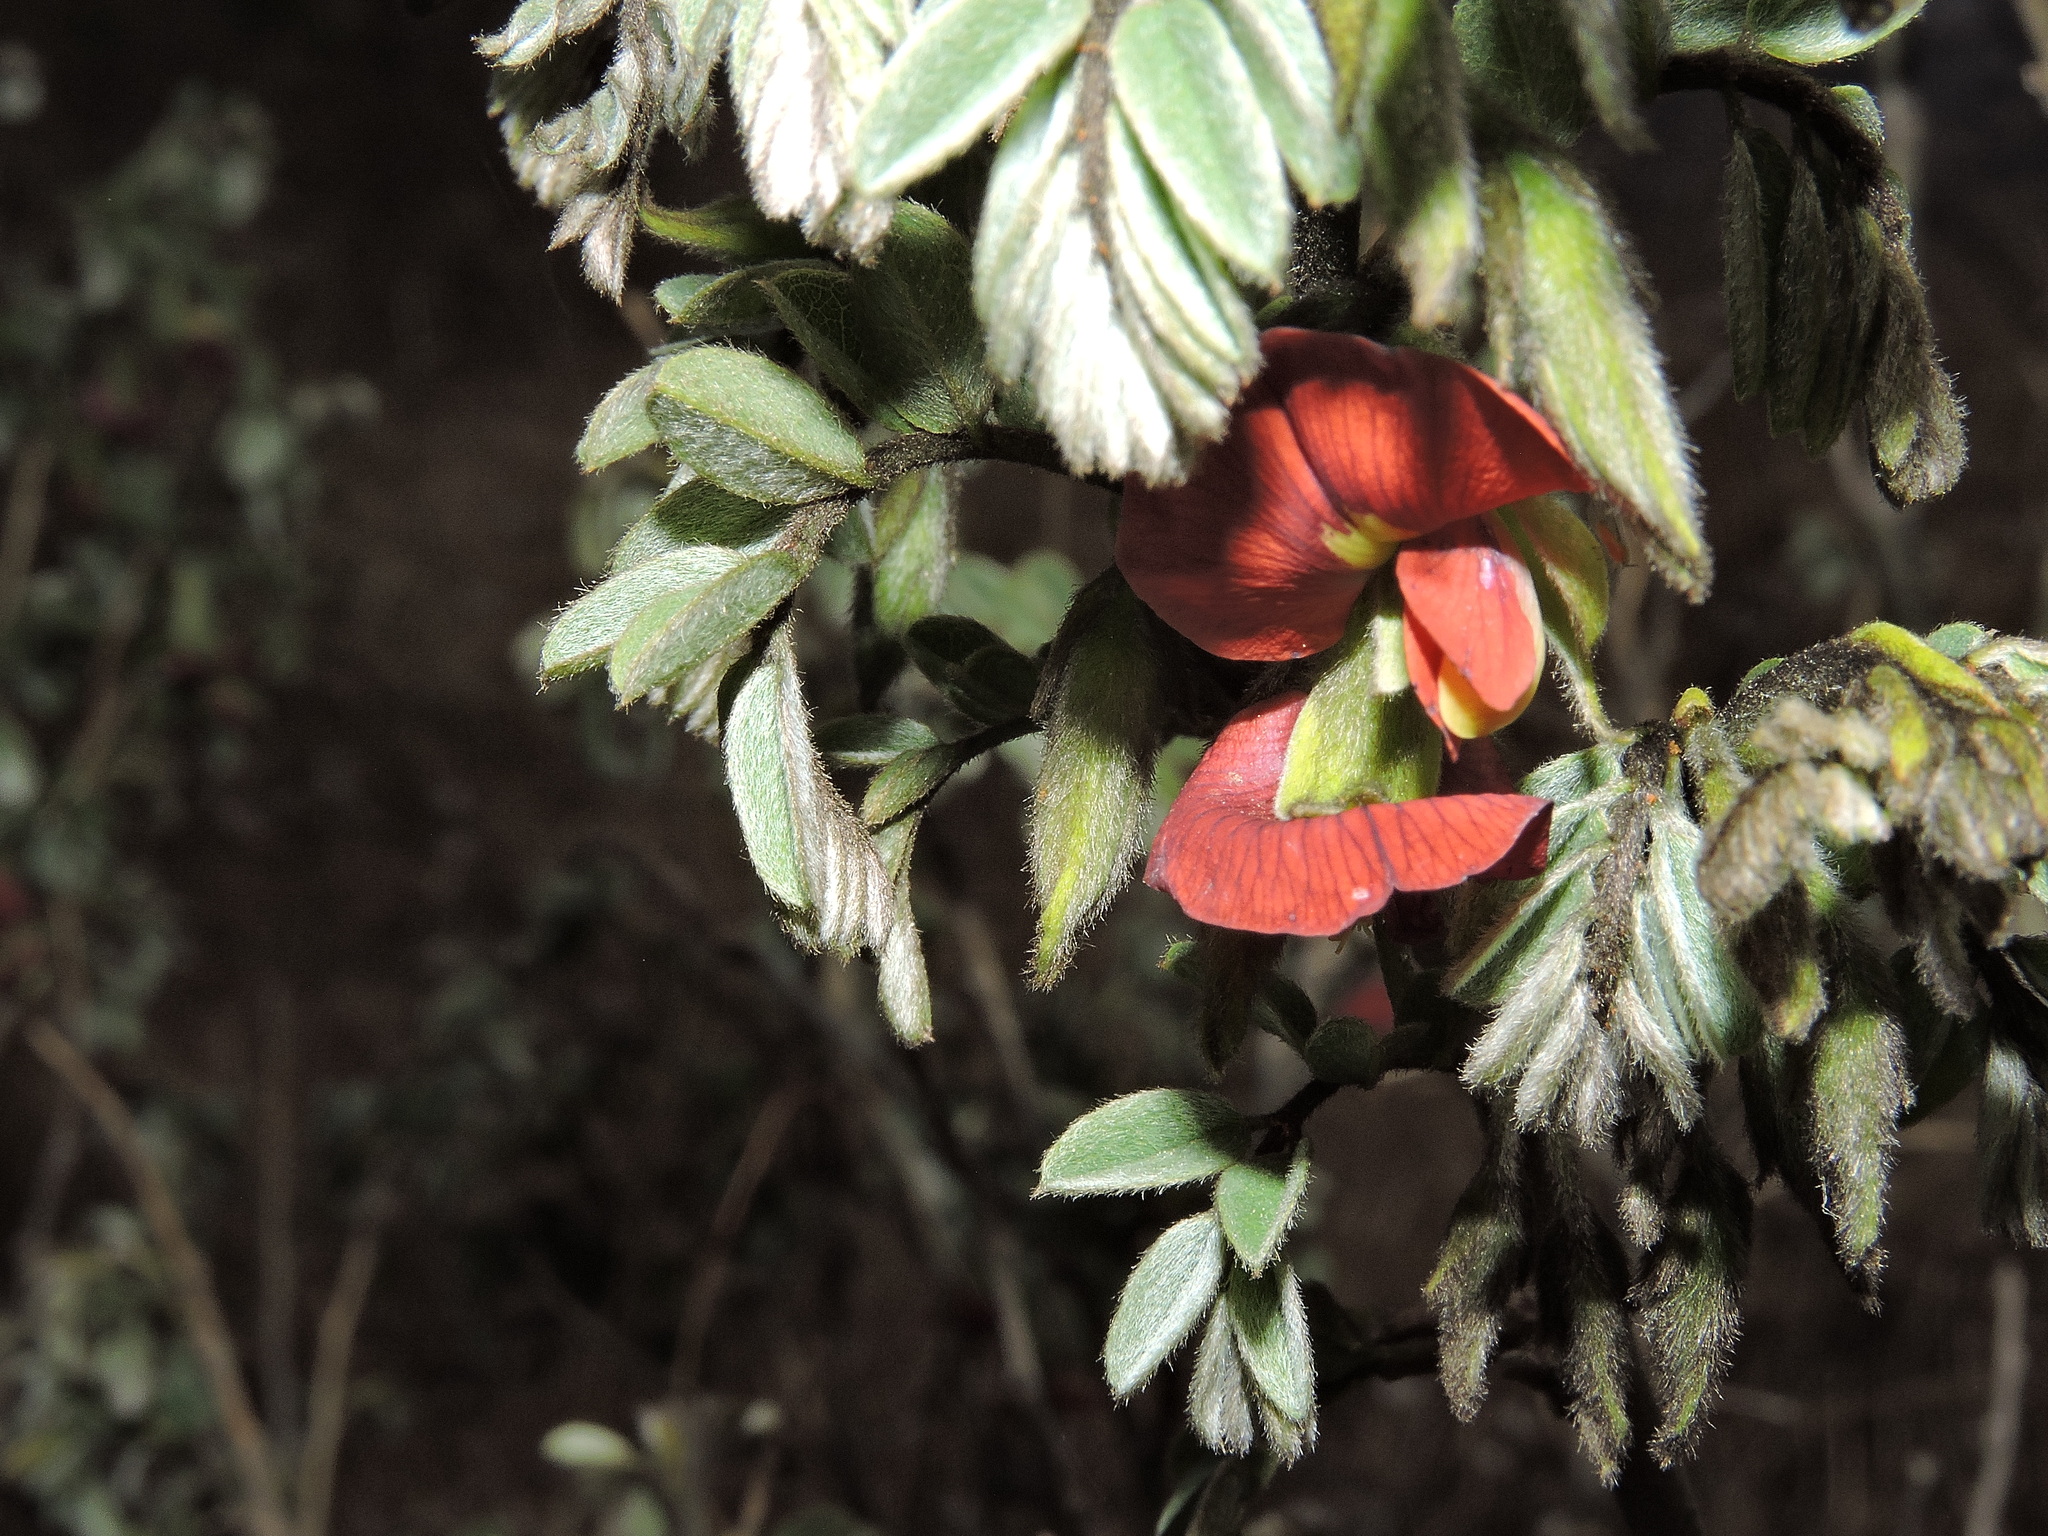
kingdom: Plantae
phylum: Tracheophyta
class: Magnoliopsida
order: Fabales
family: Fabaceae
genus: Brongniartia
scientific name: Brongniartia intermedia
